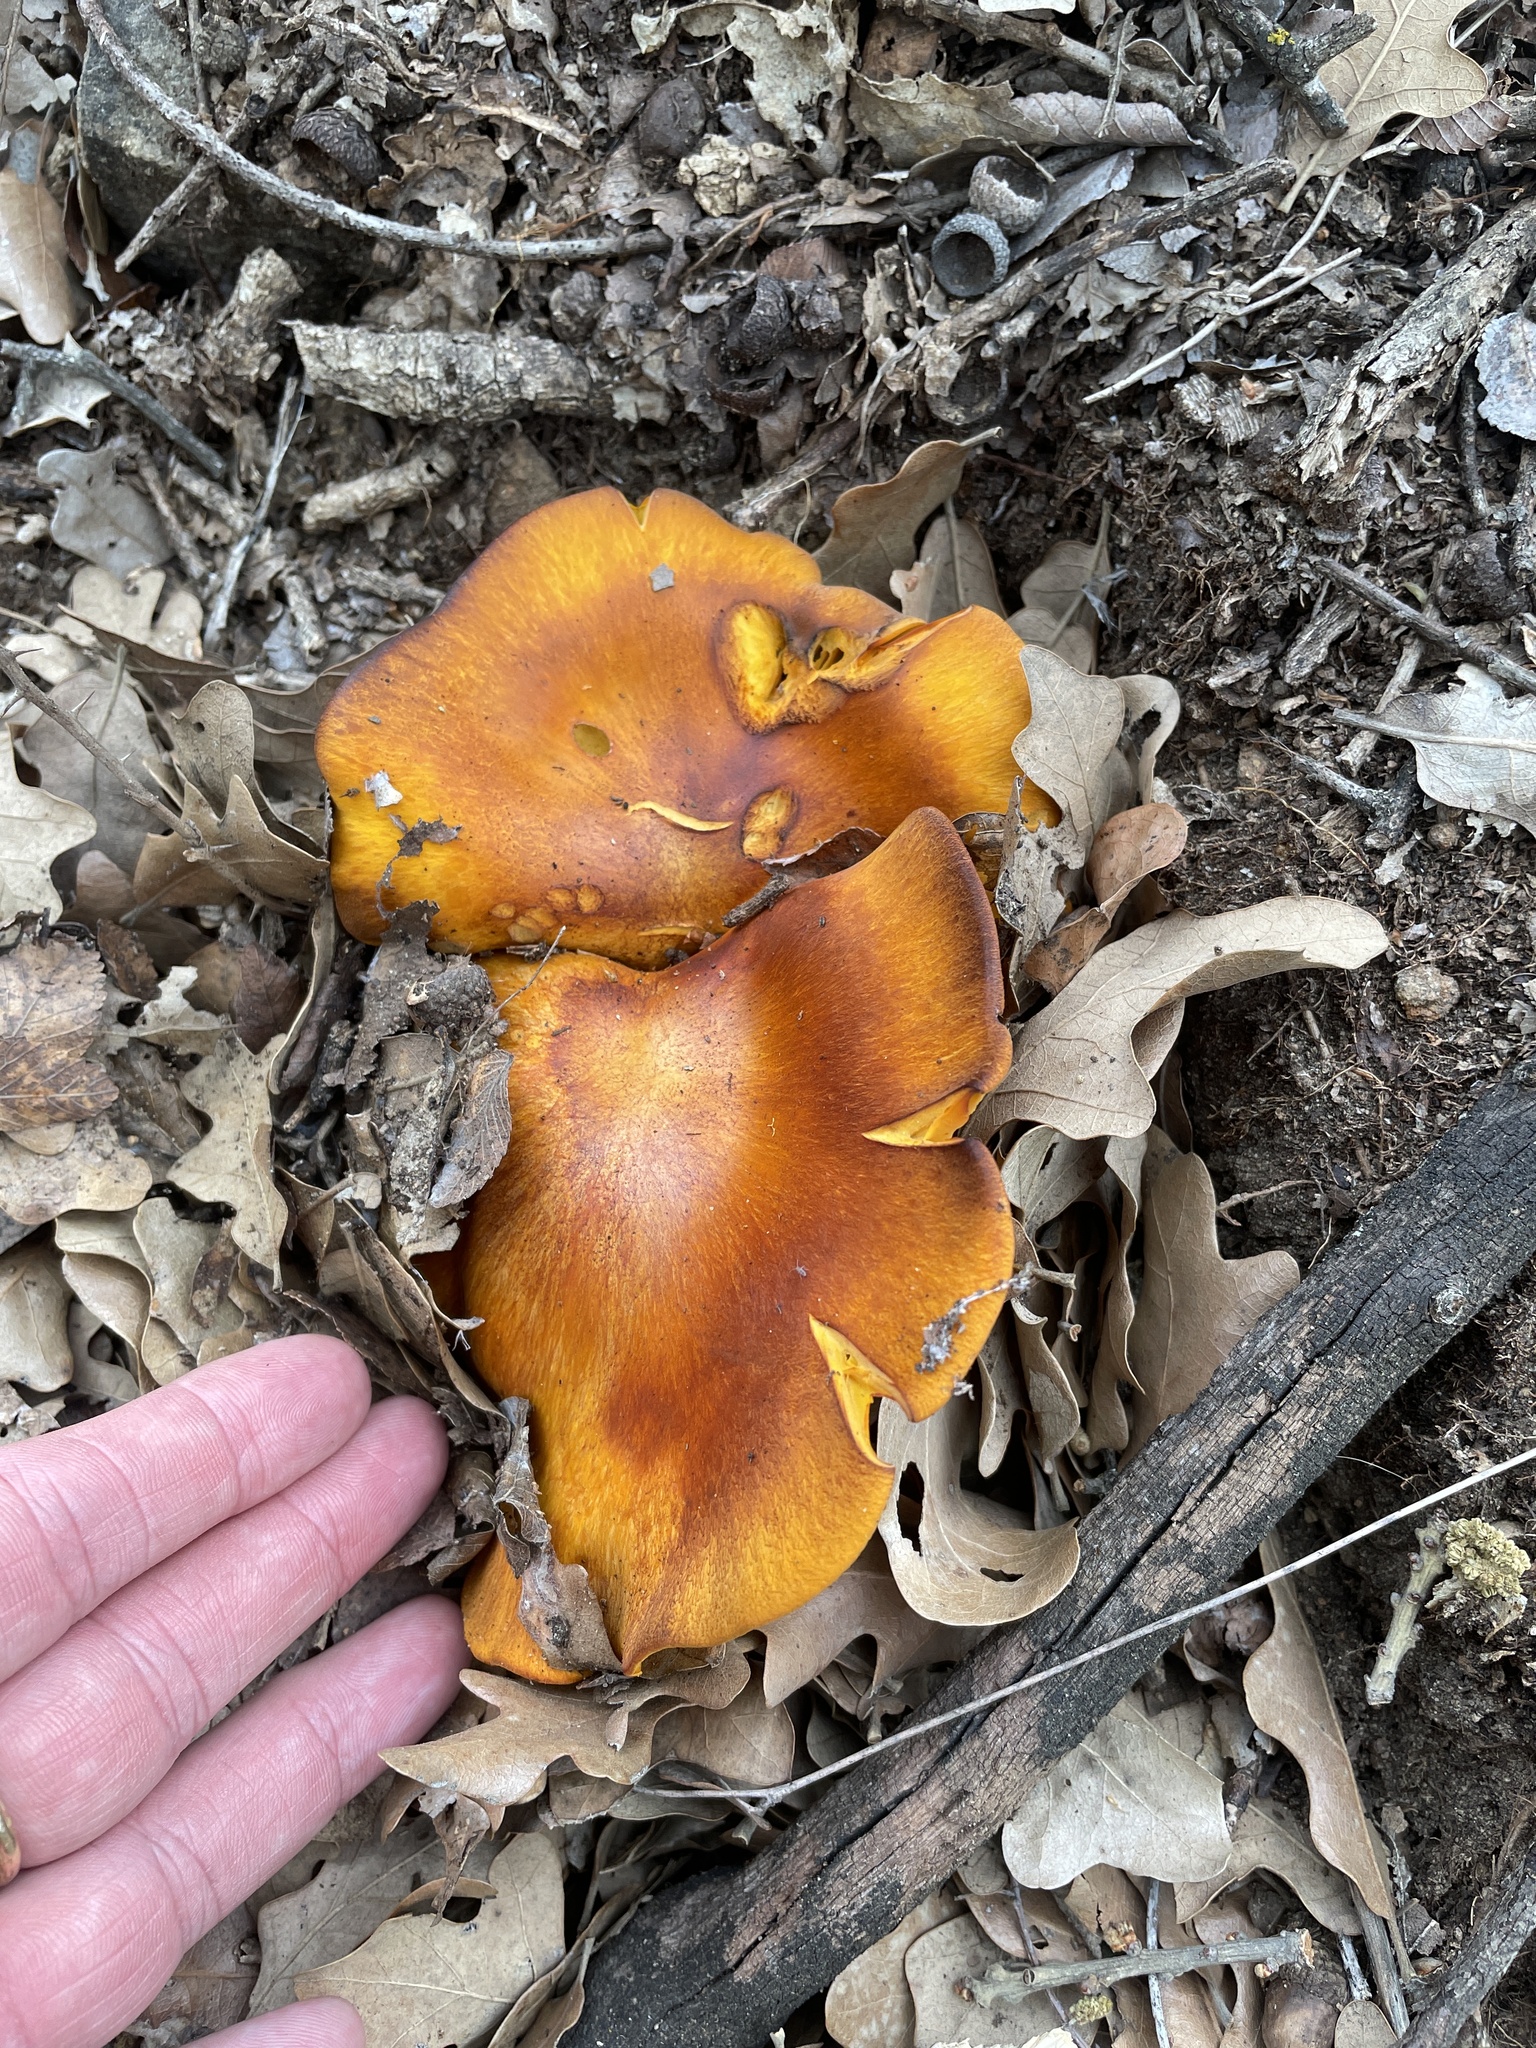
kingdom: Fungi
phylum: Basidiomycota
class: Agaricomycetes
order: Agaricales
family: Omphalotaceae
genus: Omphalotus
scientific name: Omphalotus subilludens
